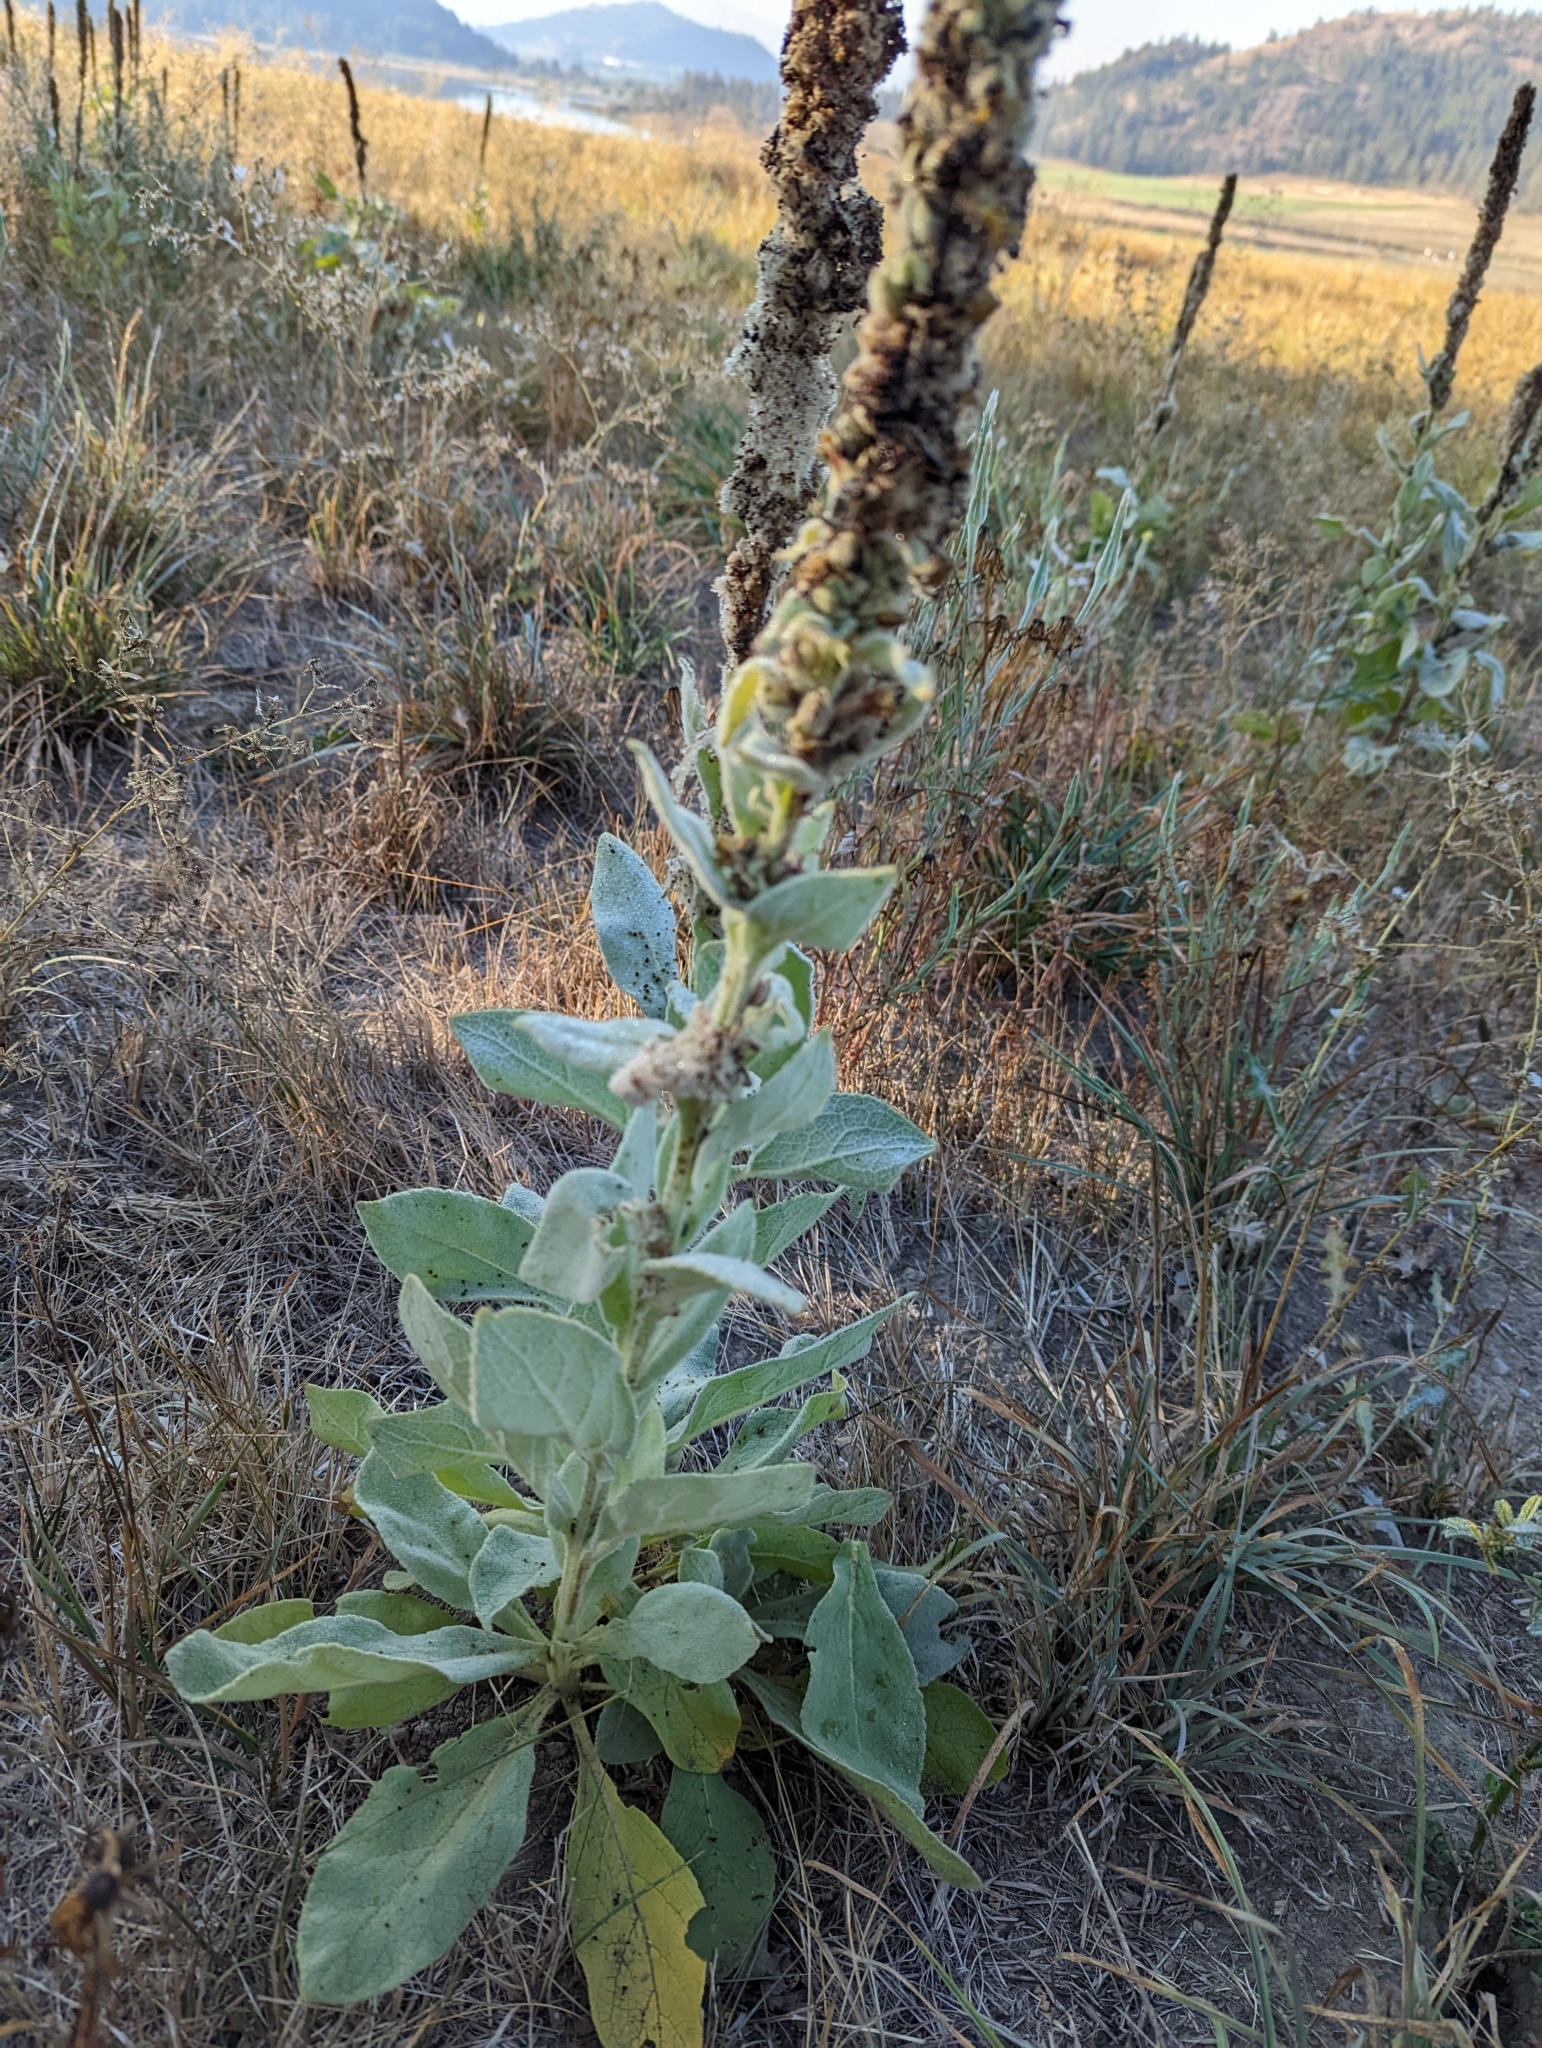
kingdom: Plantae
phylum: Tracheophyta
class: Magnoliopsida
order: Lamiales
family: Scrophulariaceae
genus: Verbascum
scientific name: Verbascum thapsus
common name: Common mullein
